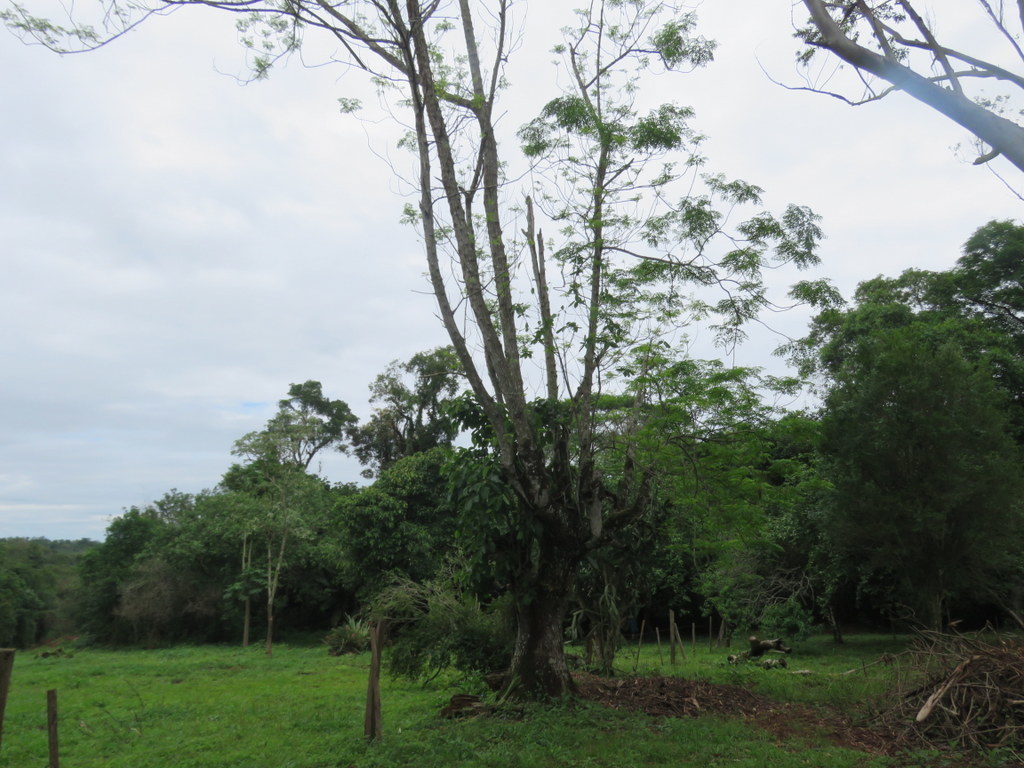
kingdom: Plantae
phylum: Tracheophyta
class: Magnoliopsida
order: Sapindales
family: Meliaceae
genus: Melia
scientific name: Melia azedarach
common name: Chinaberrytree
